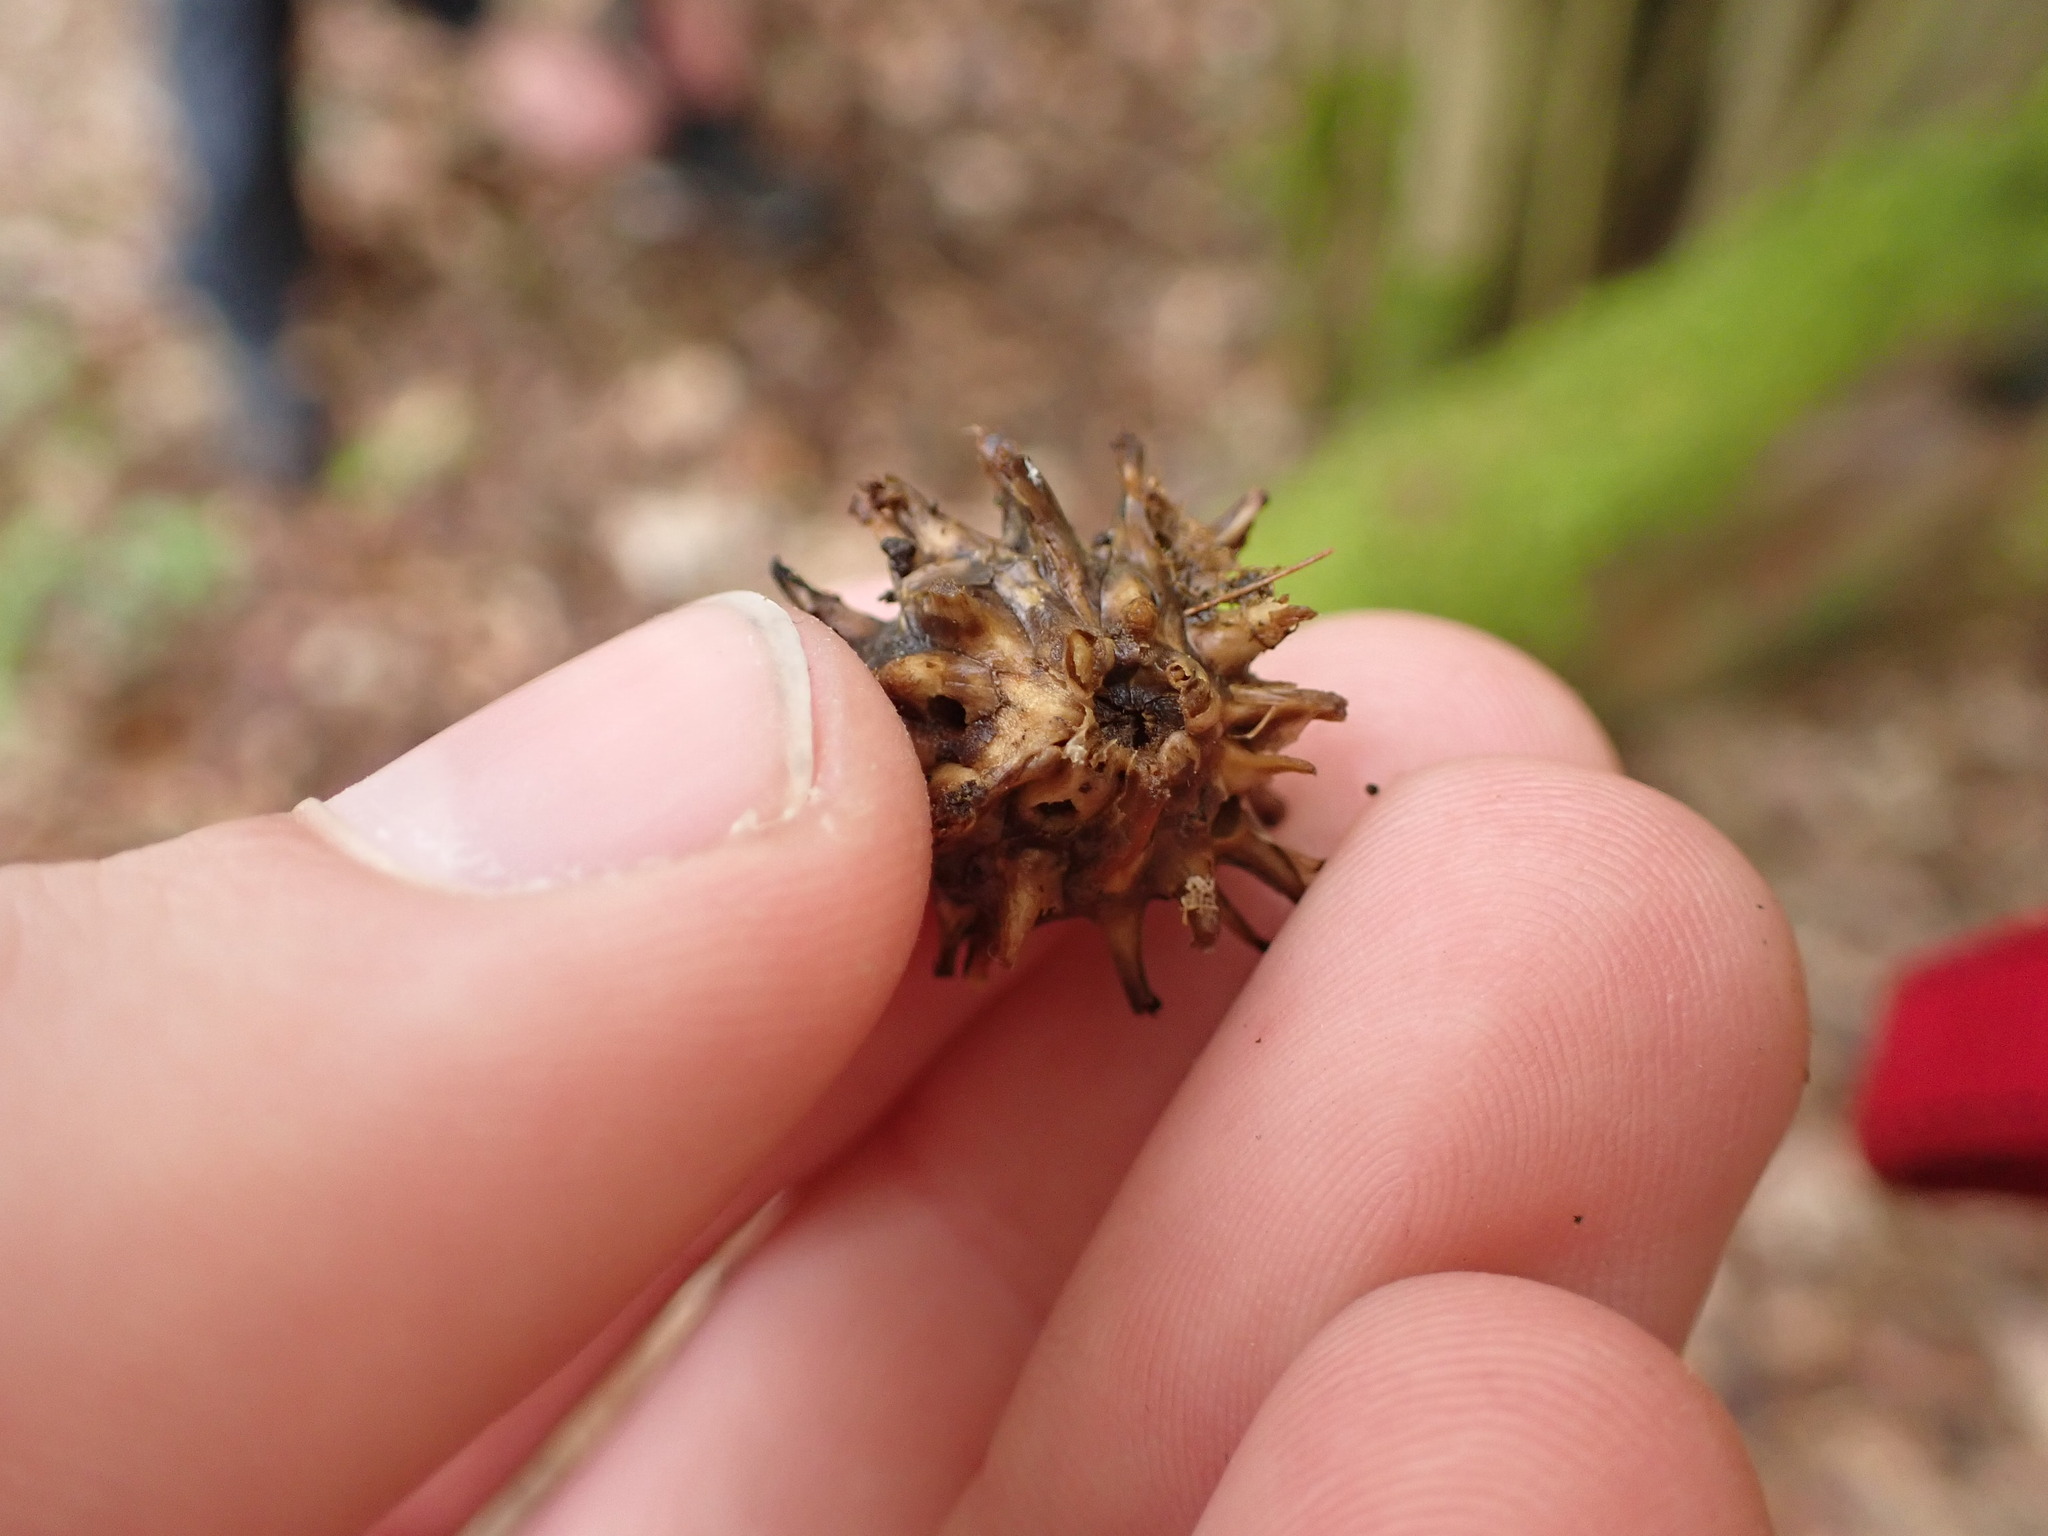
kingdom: Animalia
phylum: Arthropoda
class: Insecta
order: Hymenoptera
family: Cynipidae
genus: Andricus
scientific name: Andricus grossulariae
